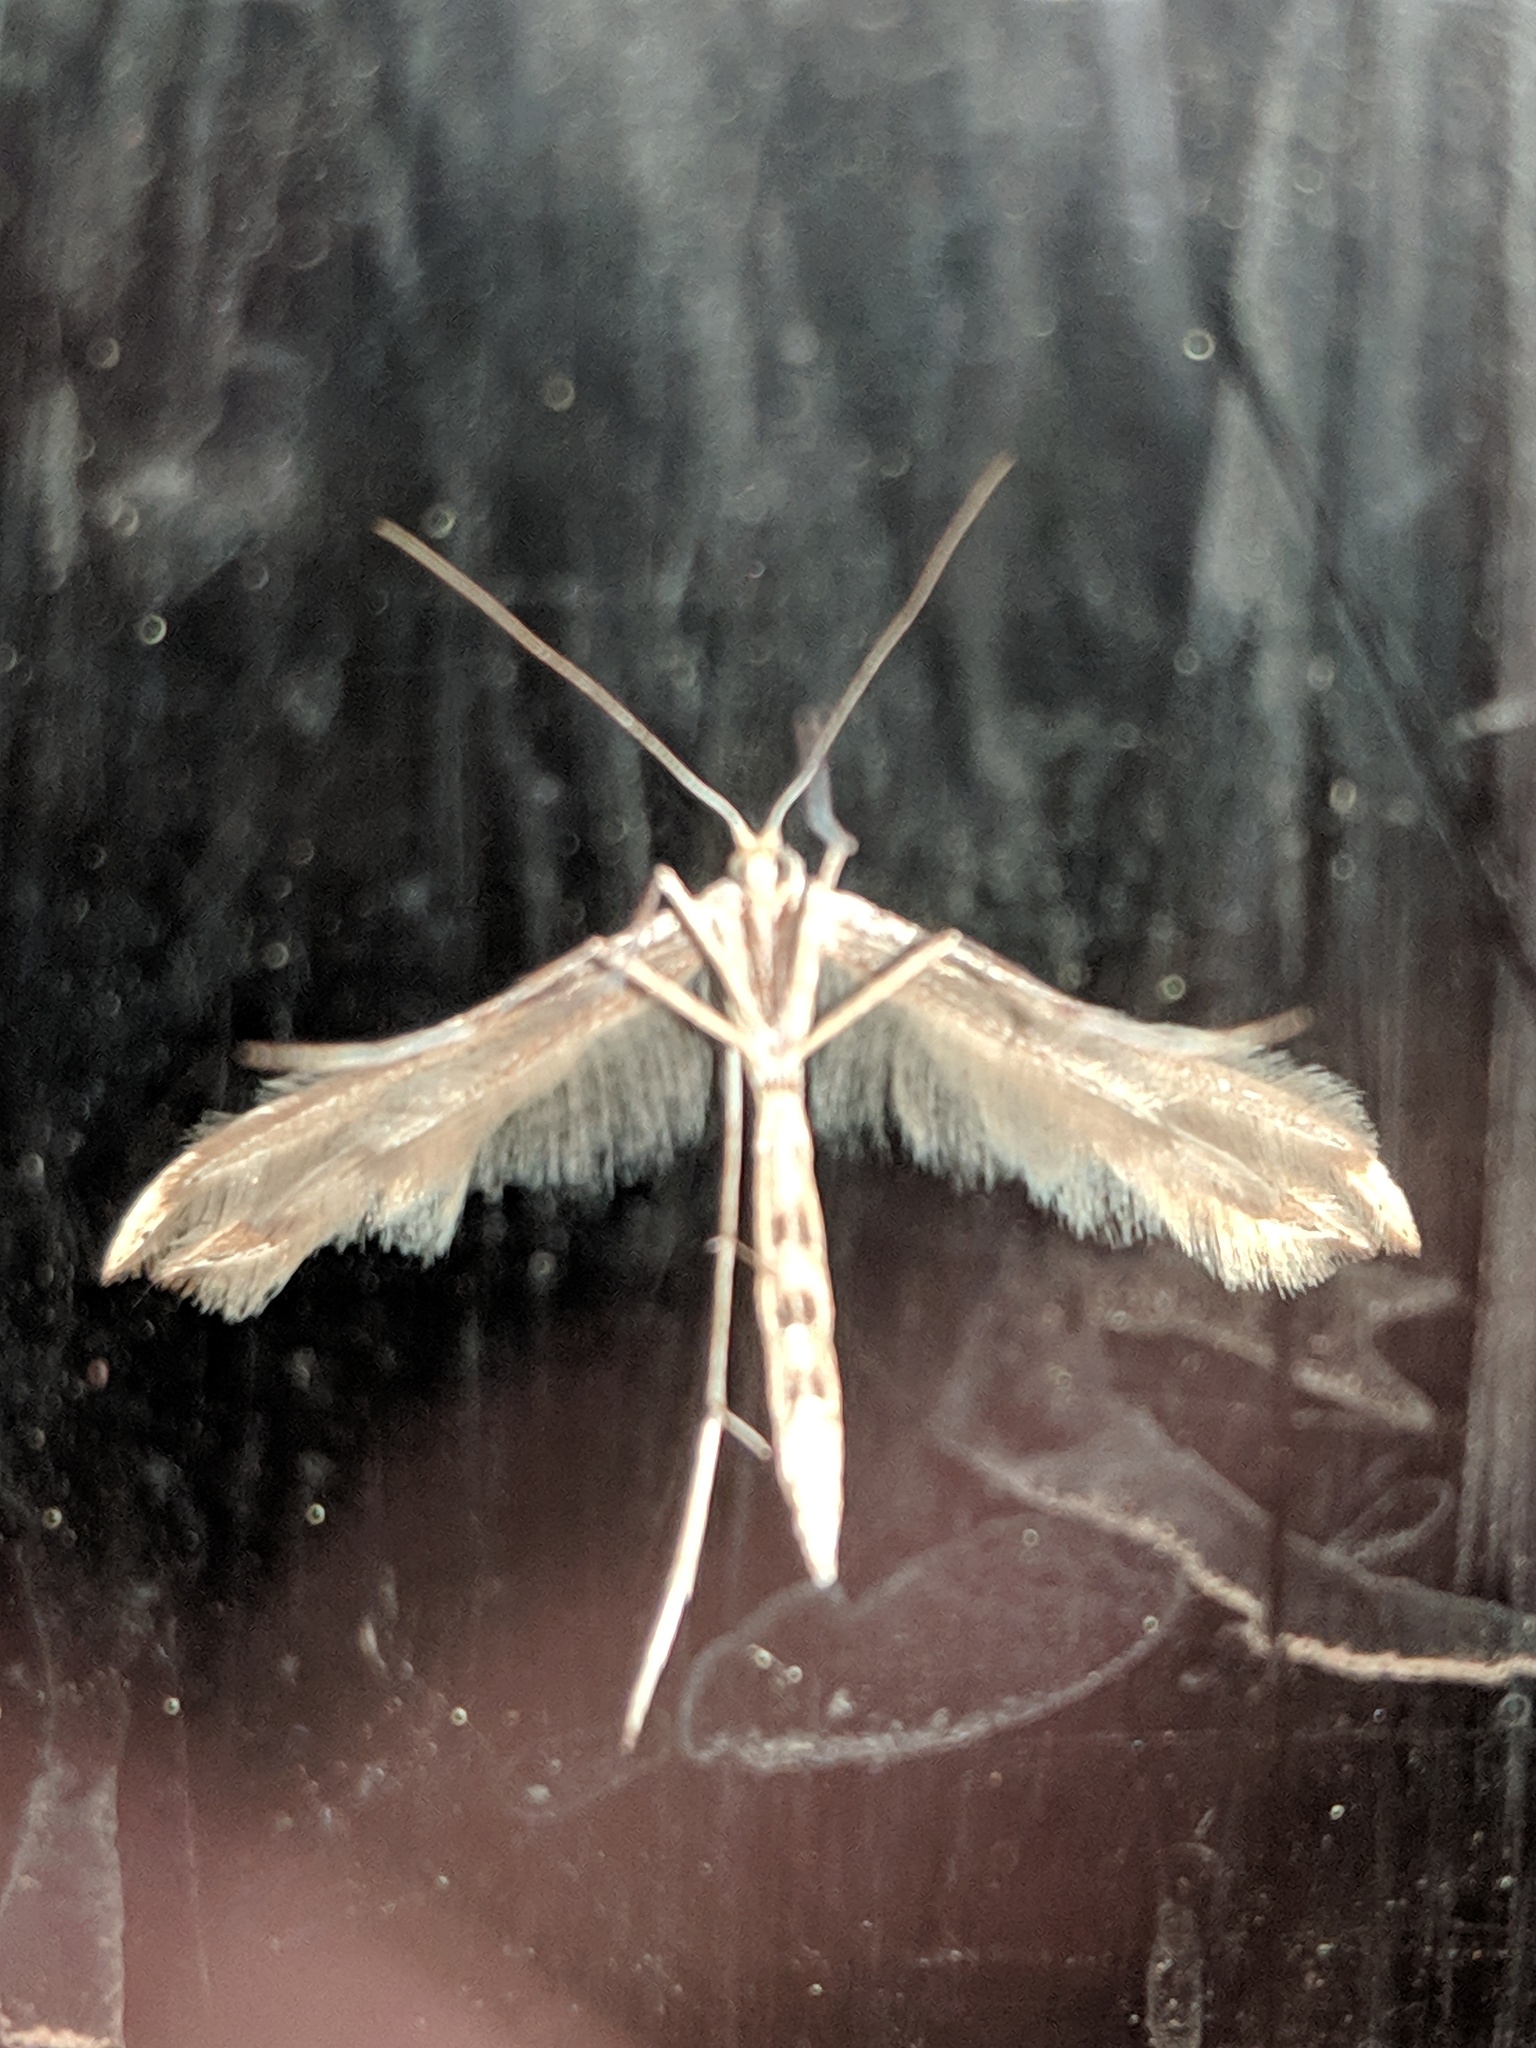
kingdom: Animalia
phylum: Arthropoda
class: Insecta
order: Lepidoptera
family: Pterophoridae
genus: Emmelina
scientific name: Emmelina monodactyla
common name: Common plume
